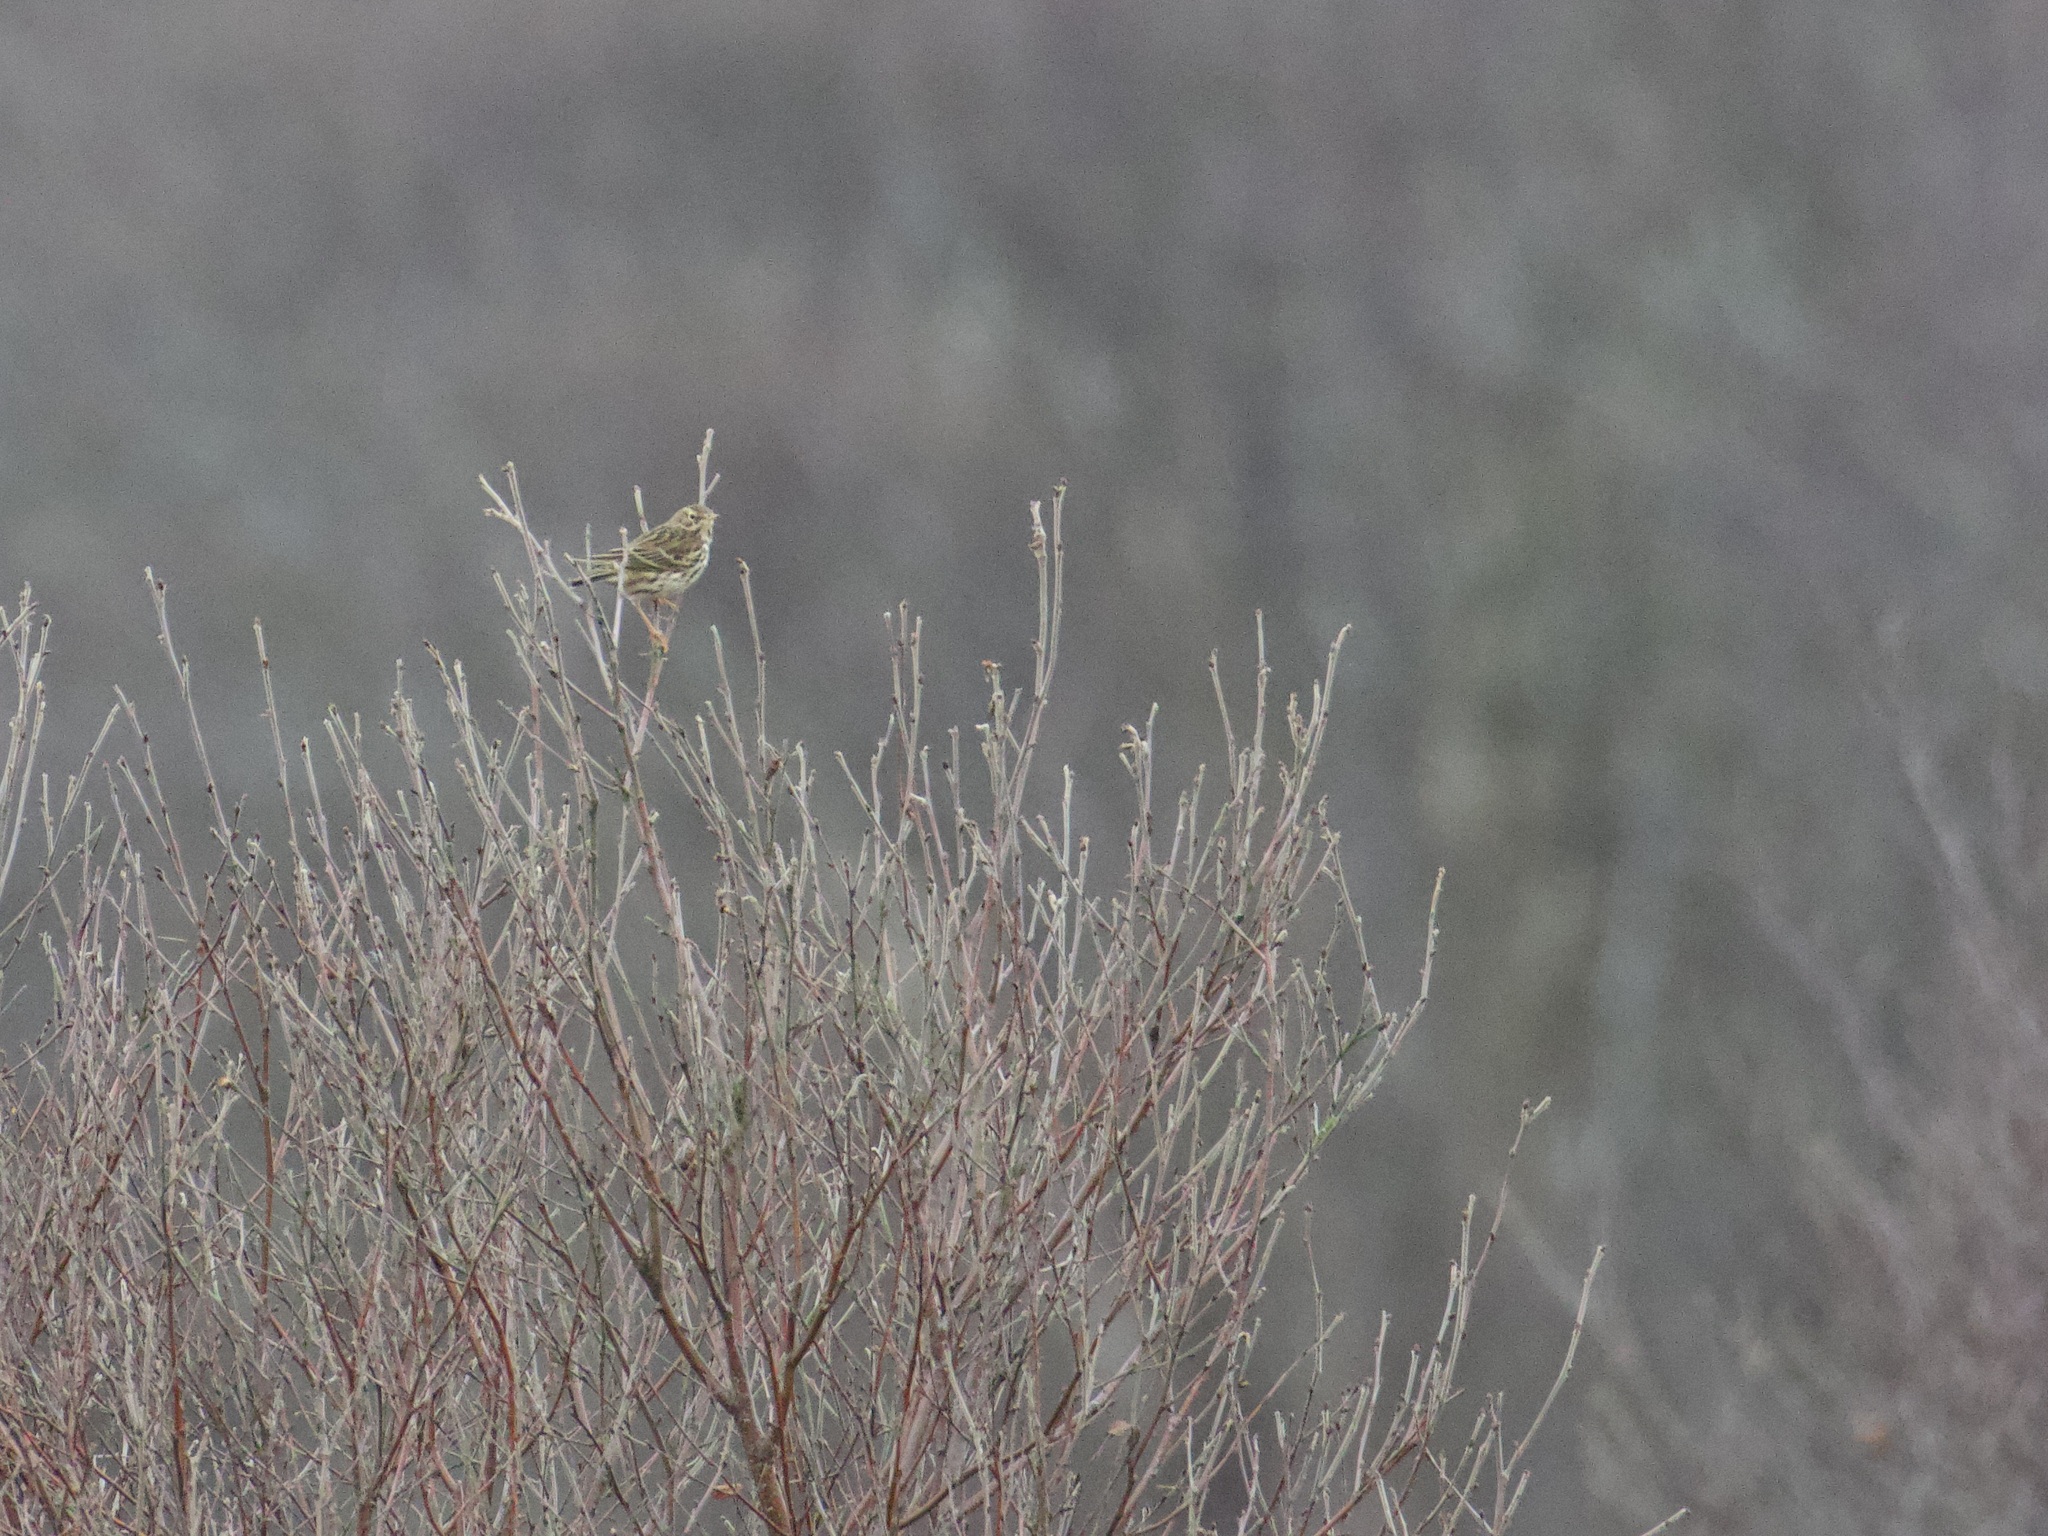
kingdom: Animalia
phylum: Chordata
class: Aves
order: Passeriformes
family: Motacillidae
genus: Anthus
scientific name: Anthus pratensis
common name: Meadow pipit
